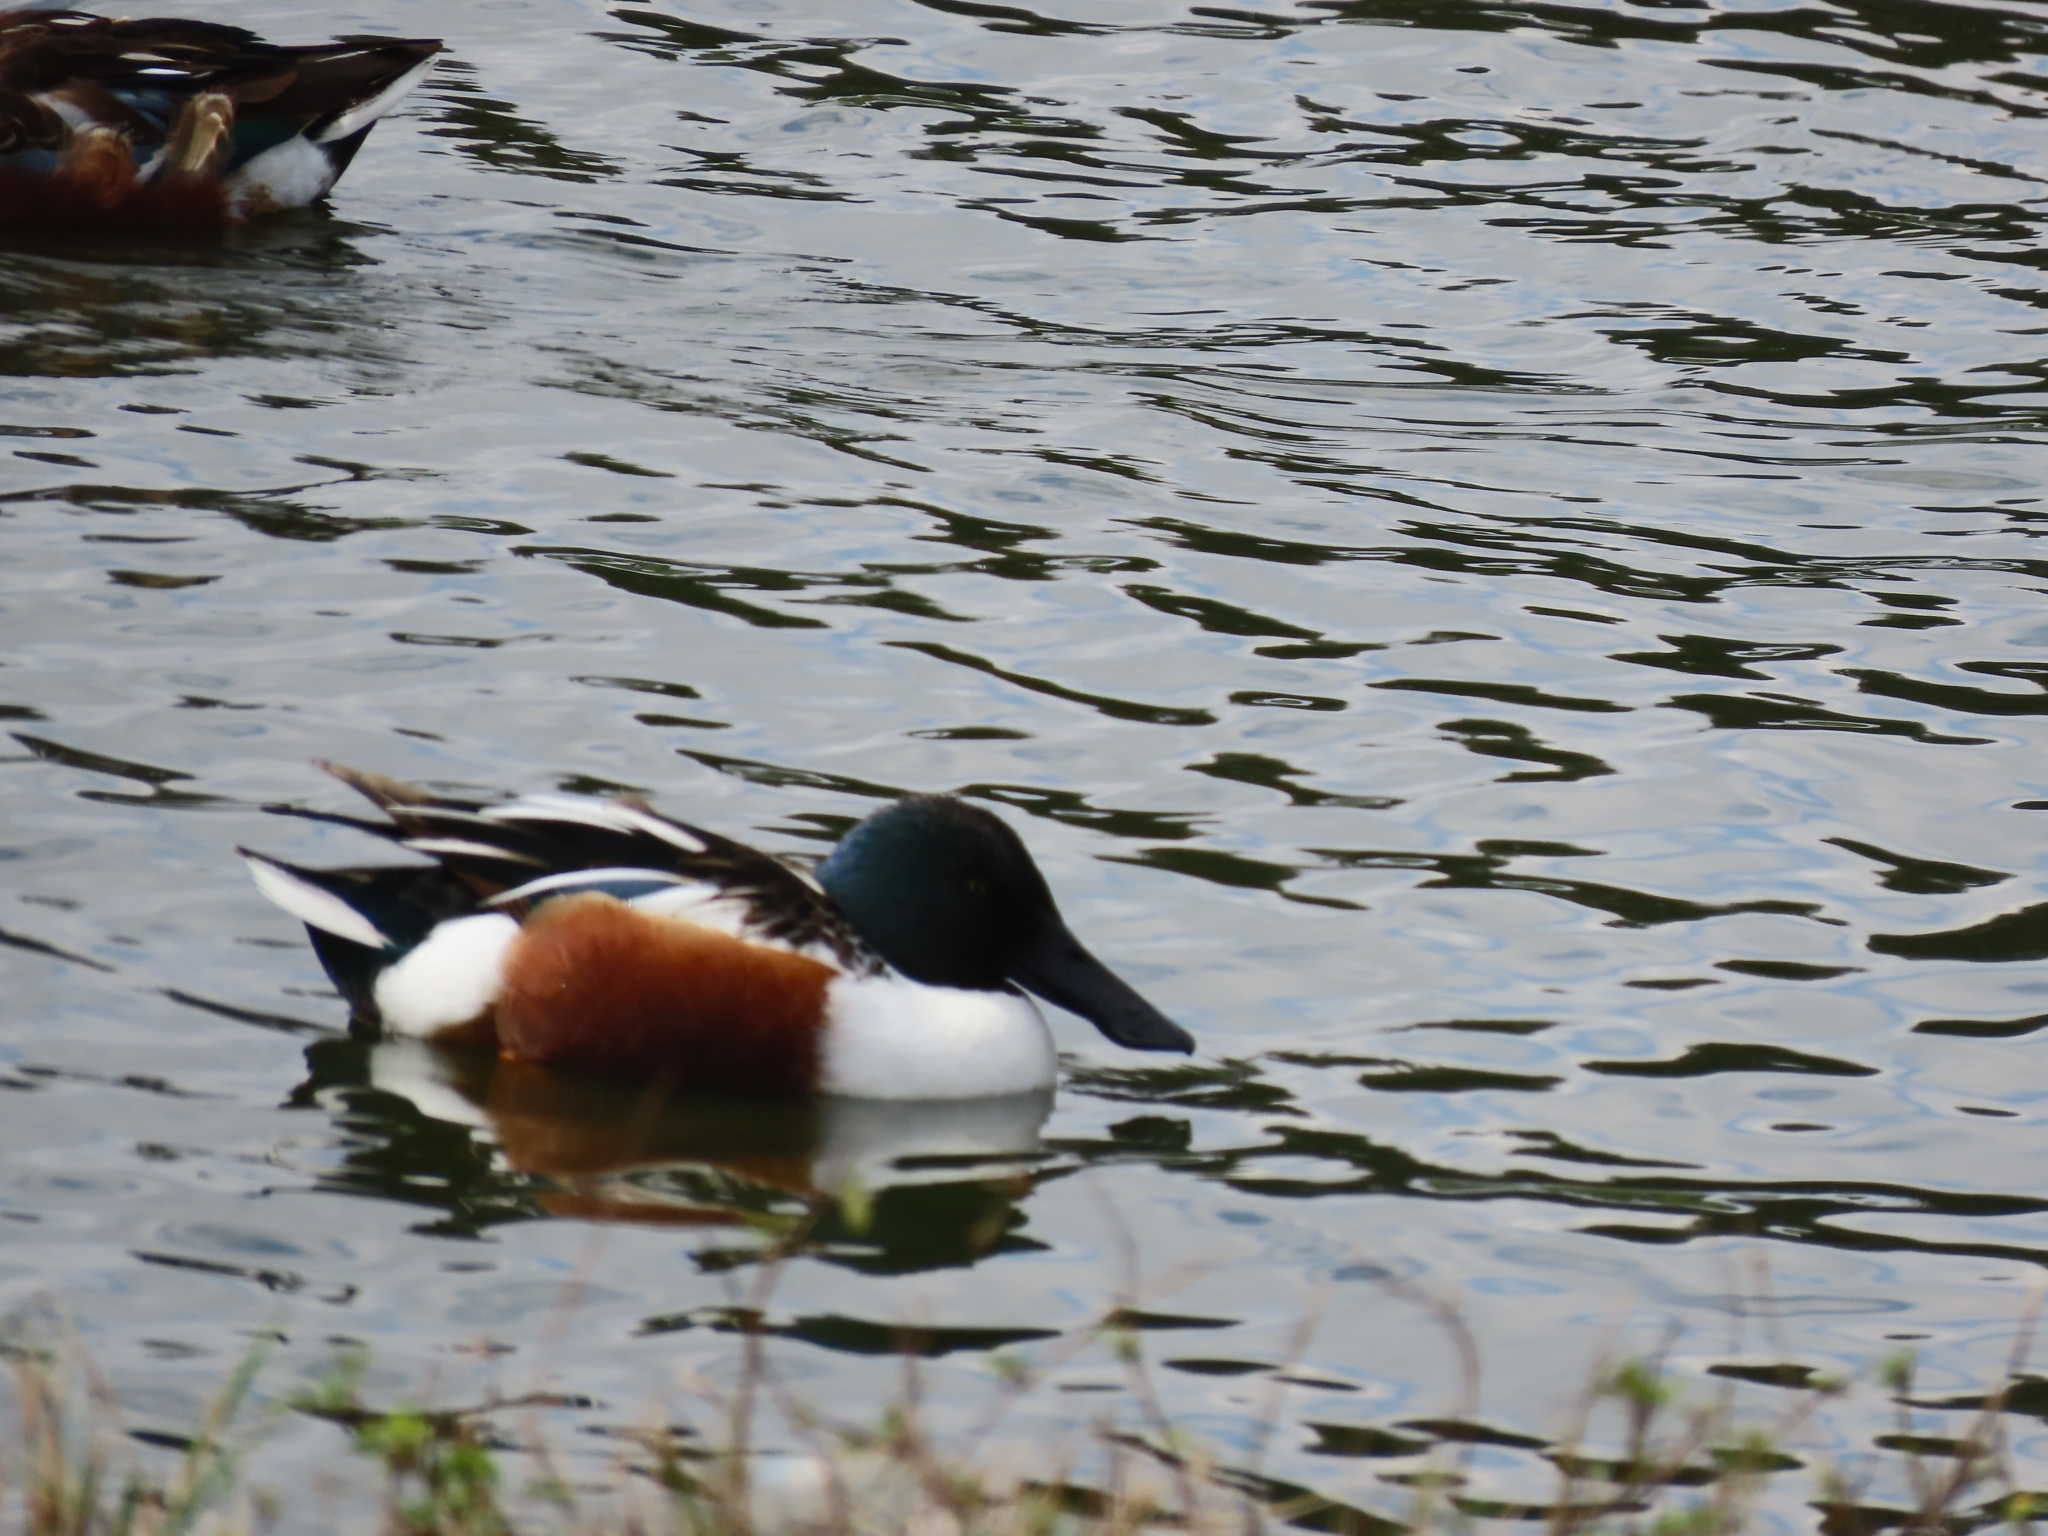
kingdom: Animalia
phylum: Chordata
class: Aves
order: Anseriformes
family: Anatidae
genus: Spatula
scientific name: Spatula clypeata
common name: Northern shoveler
